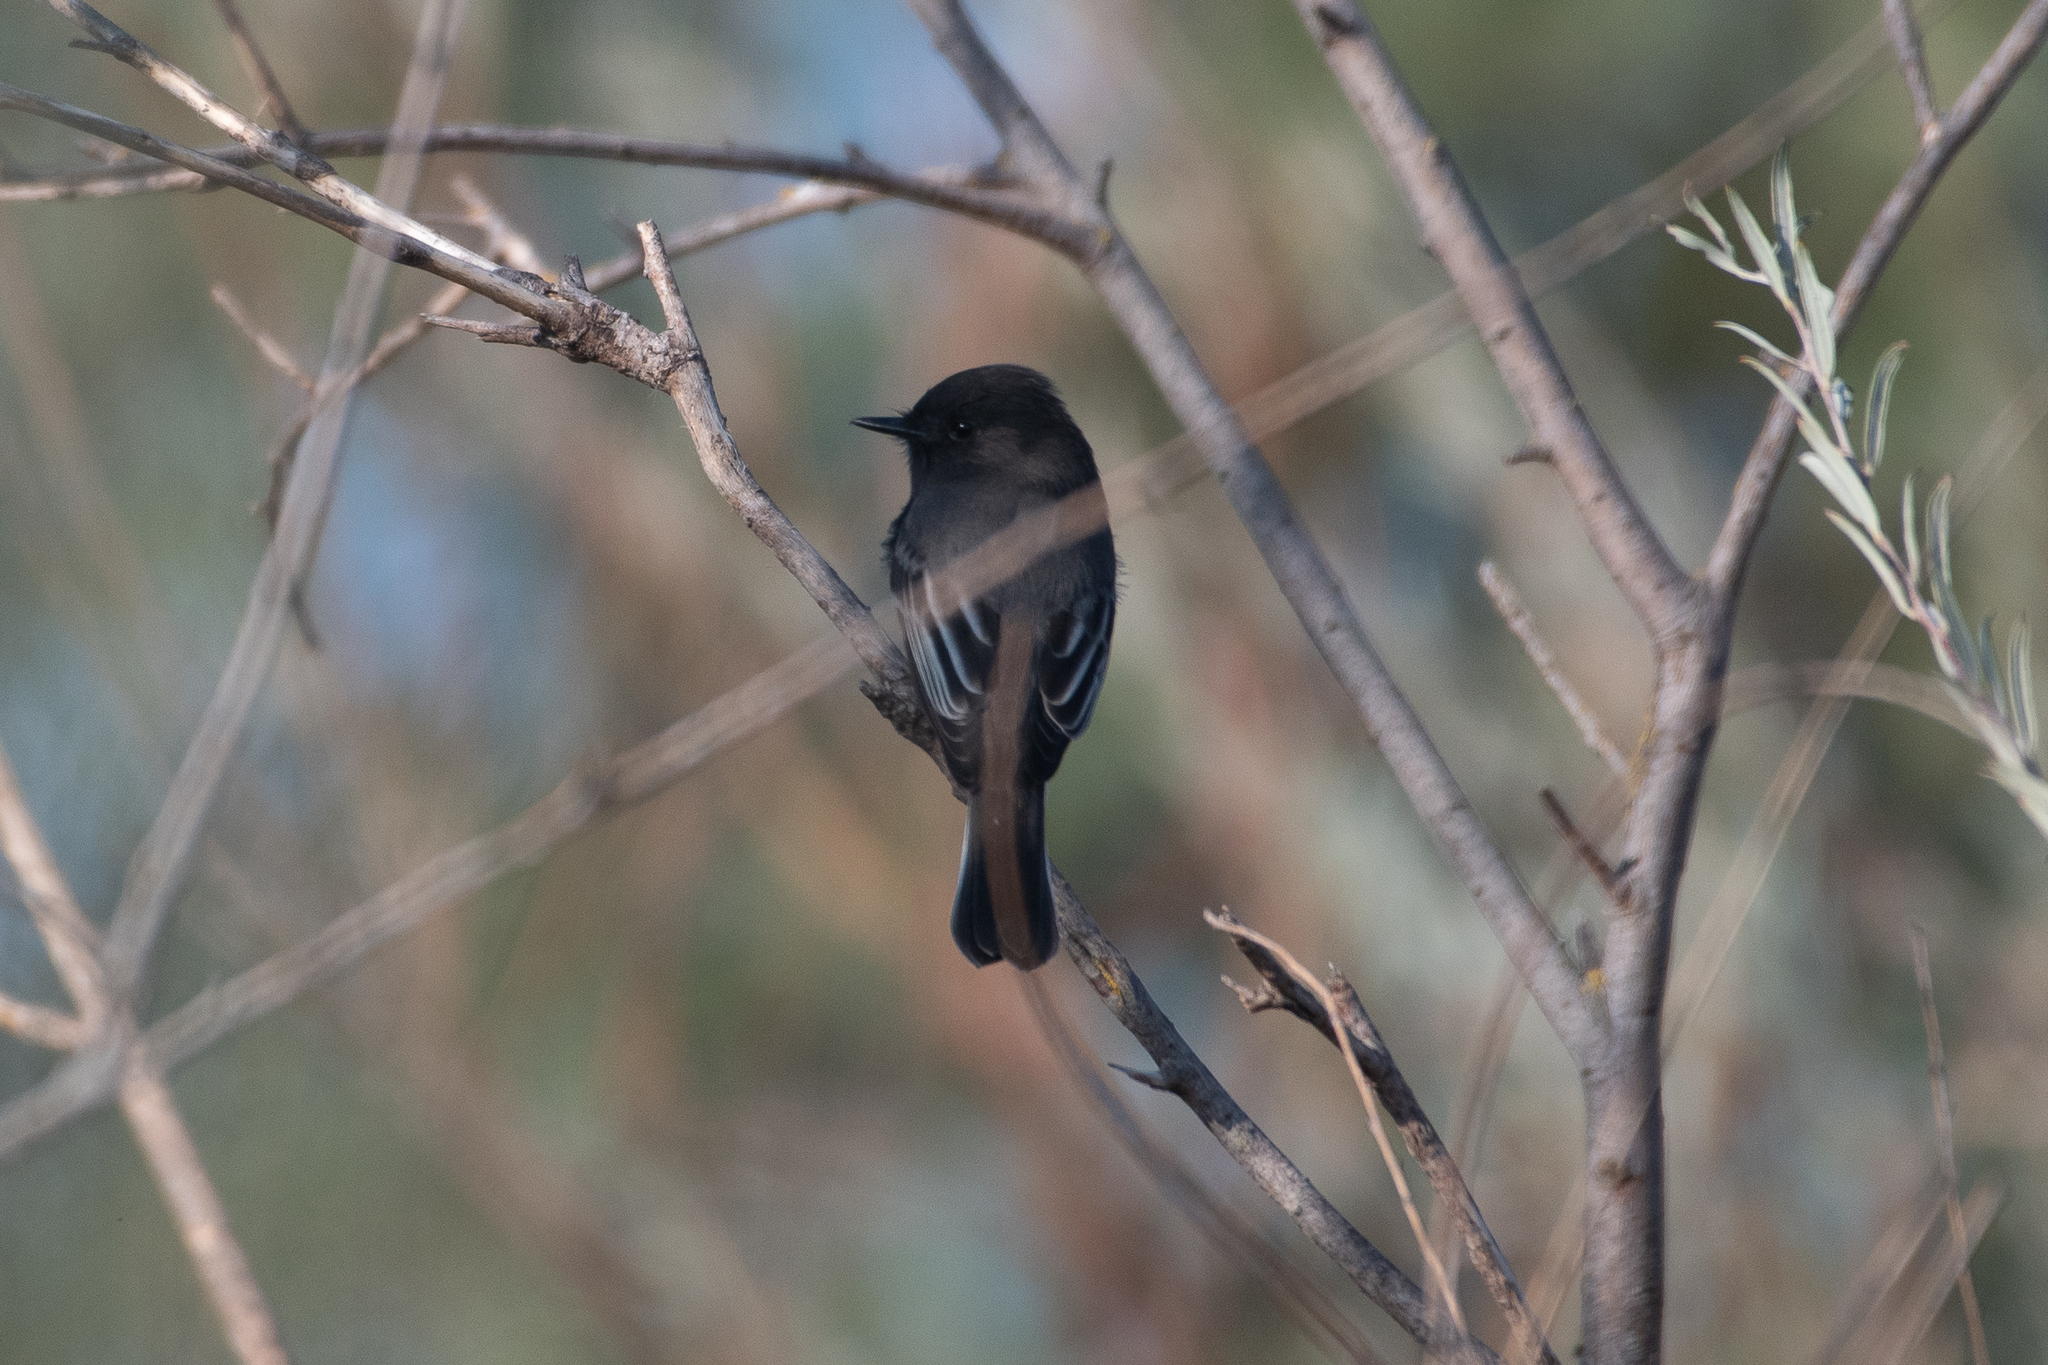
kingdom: Animalia
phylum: Chordata
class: Aves
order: Passeriformes
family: Tyrannidae
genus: Sayornis
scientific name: Sayornis nigricans
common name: Black phoebe
